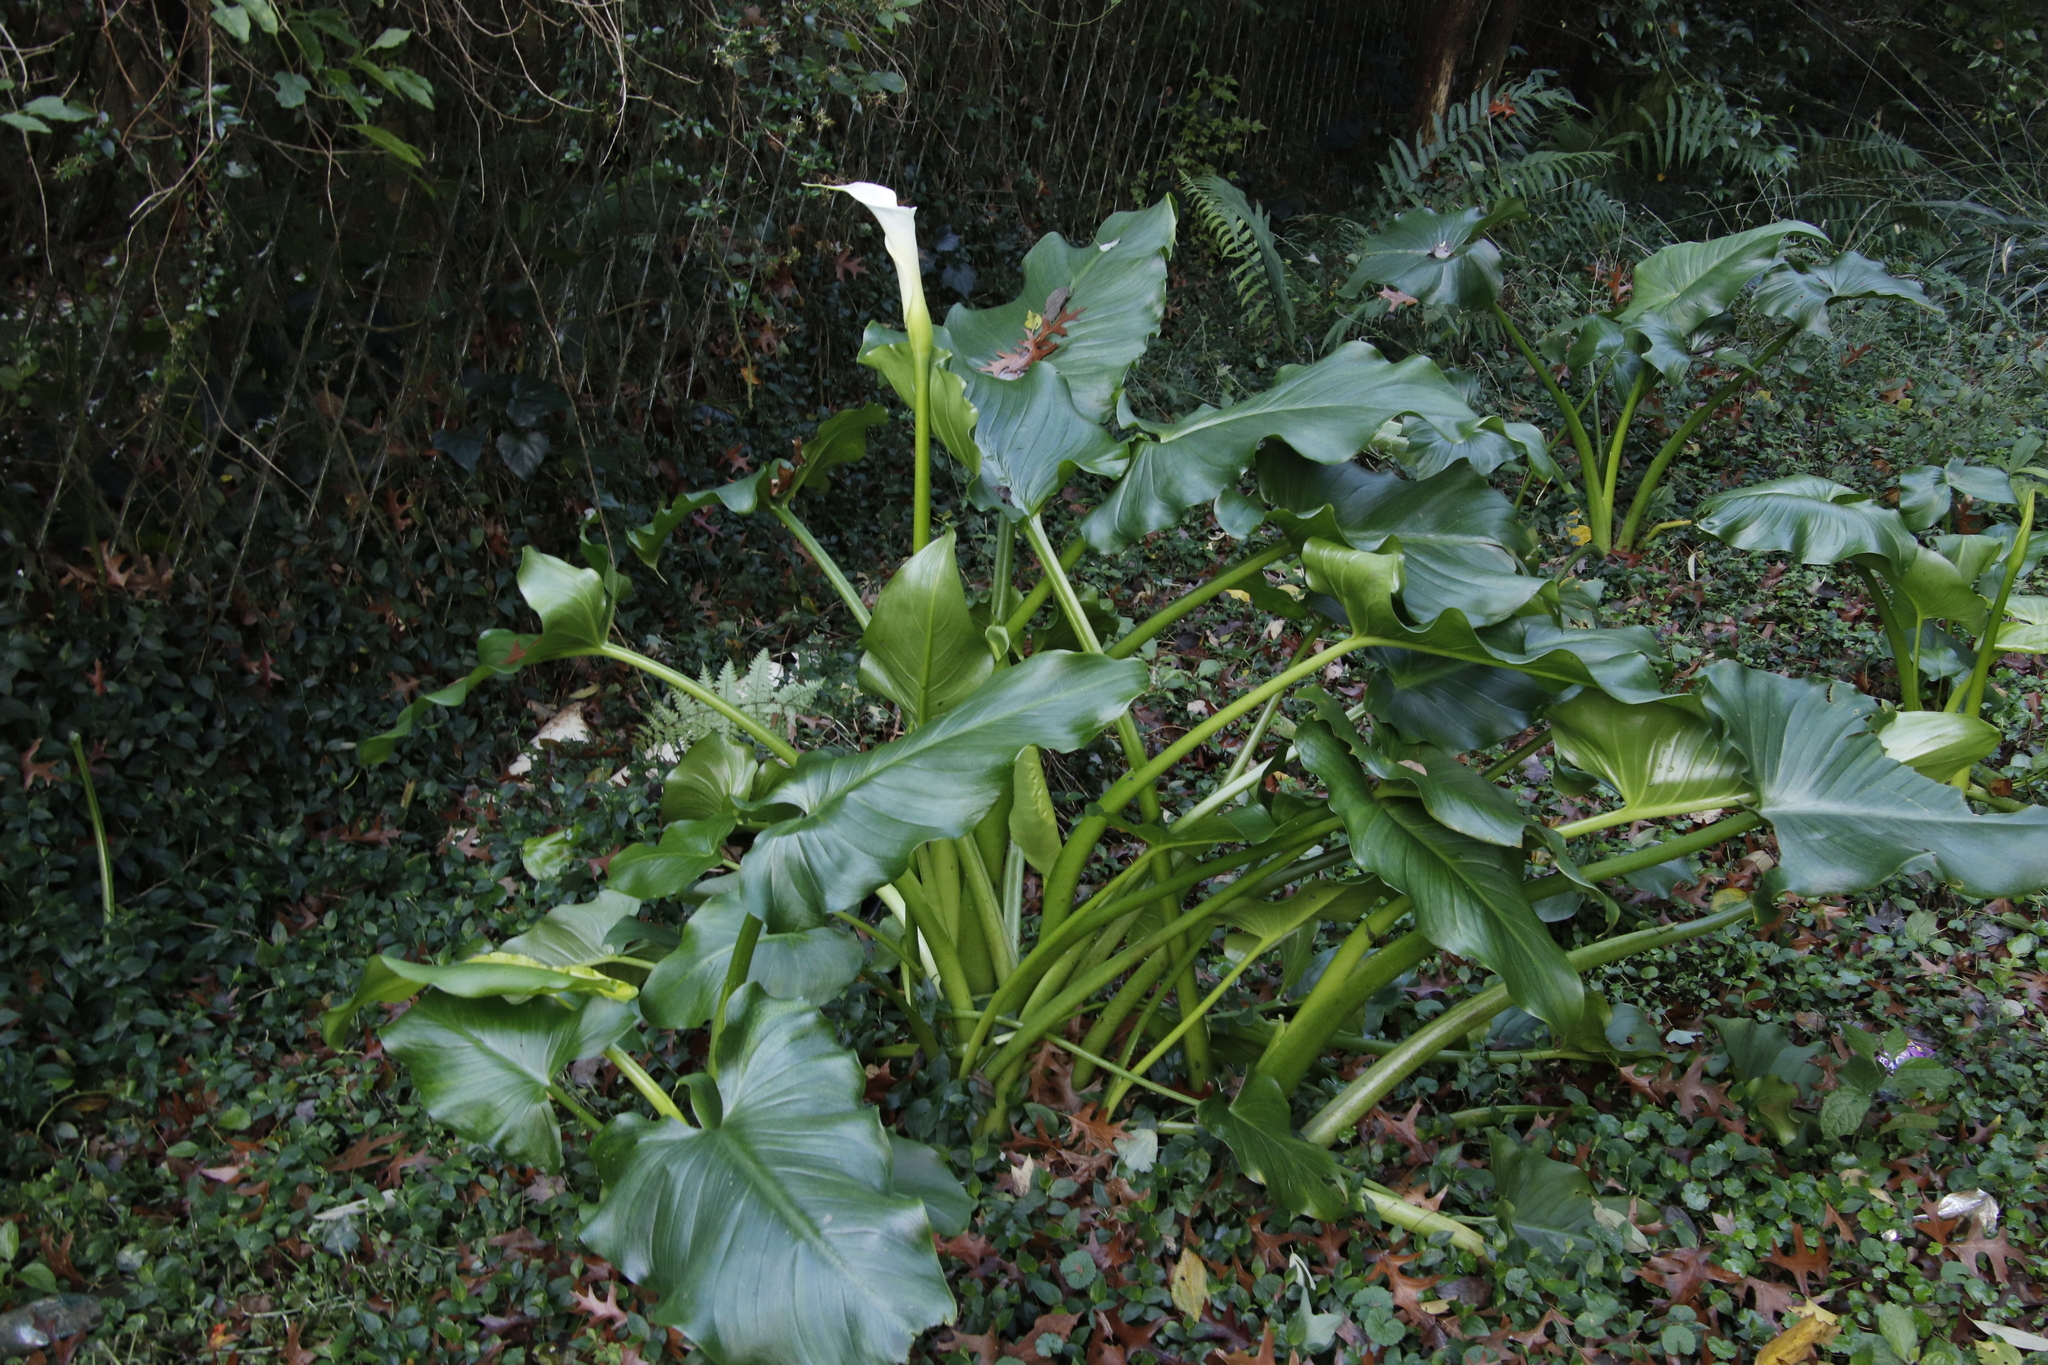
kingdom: Plantae
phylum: Tracheophyta
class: Liliopsida
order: Alismatales
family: Araceae
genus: Zantedeschia
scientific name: Zantedeschia aethiopica
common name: Altar-lily
